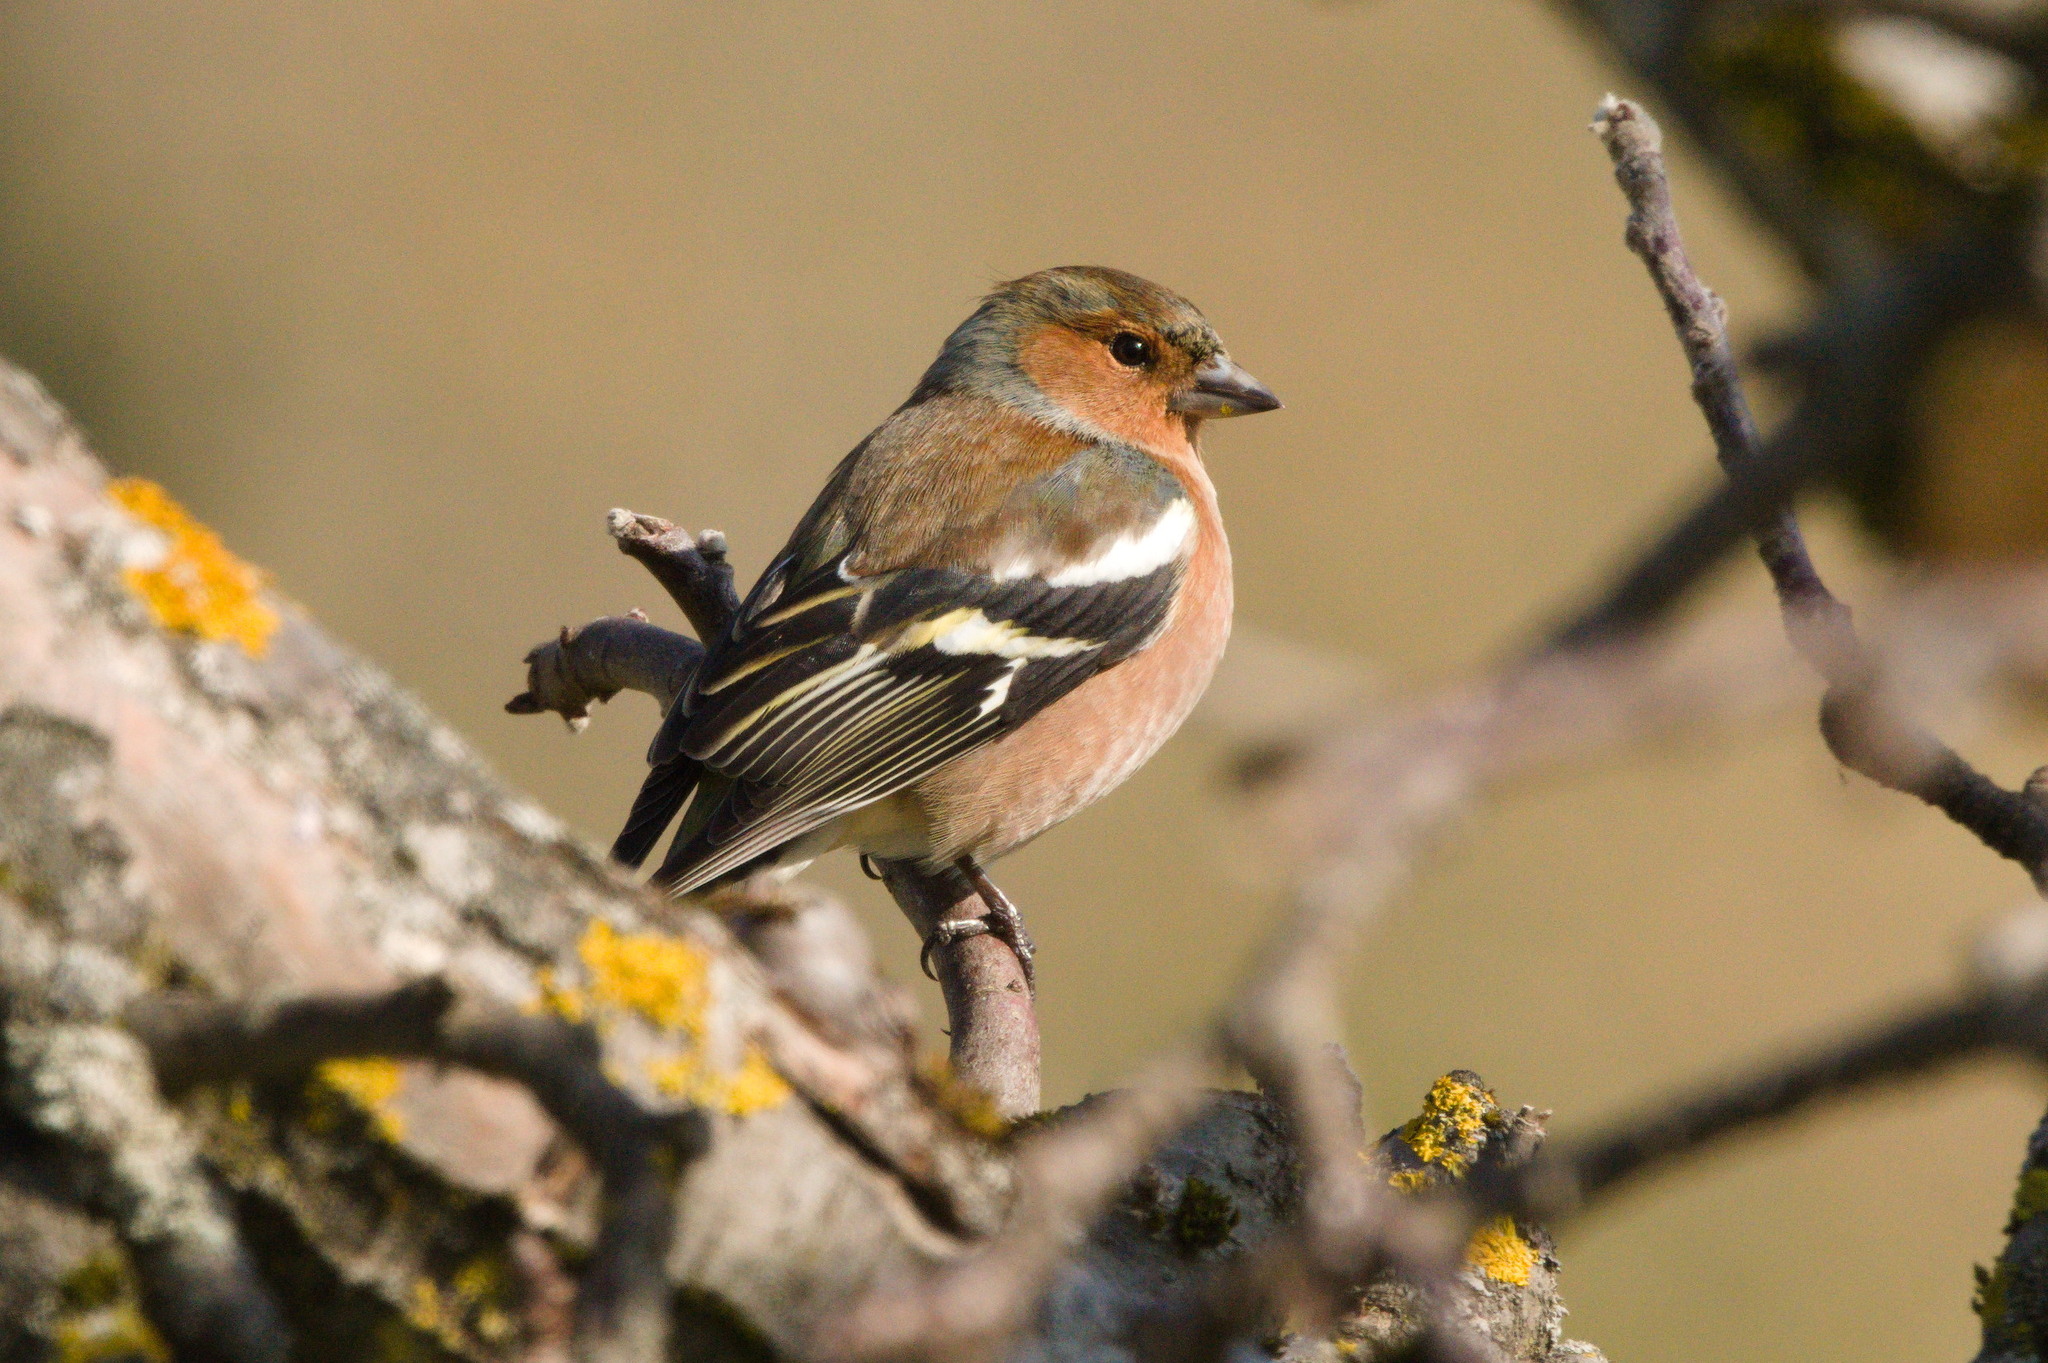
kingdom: Animalia
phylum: Chordata
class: Aves
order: Passeriformes
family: Fringillidae
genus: Fringilla
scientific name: Fringilla coelebs
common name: Common chaffinch
